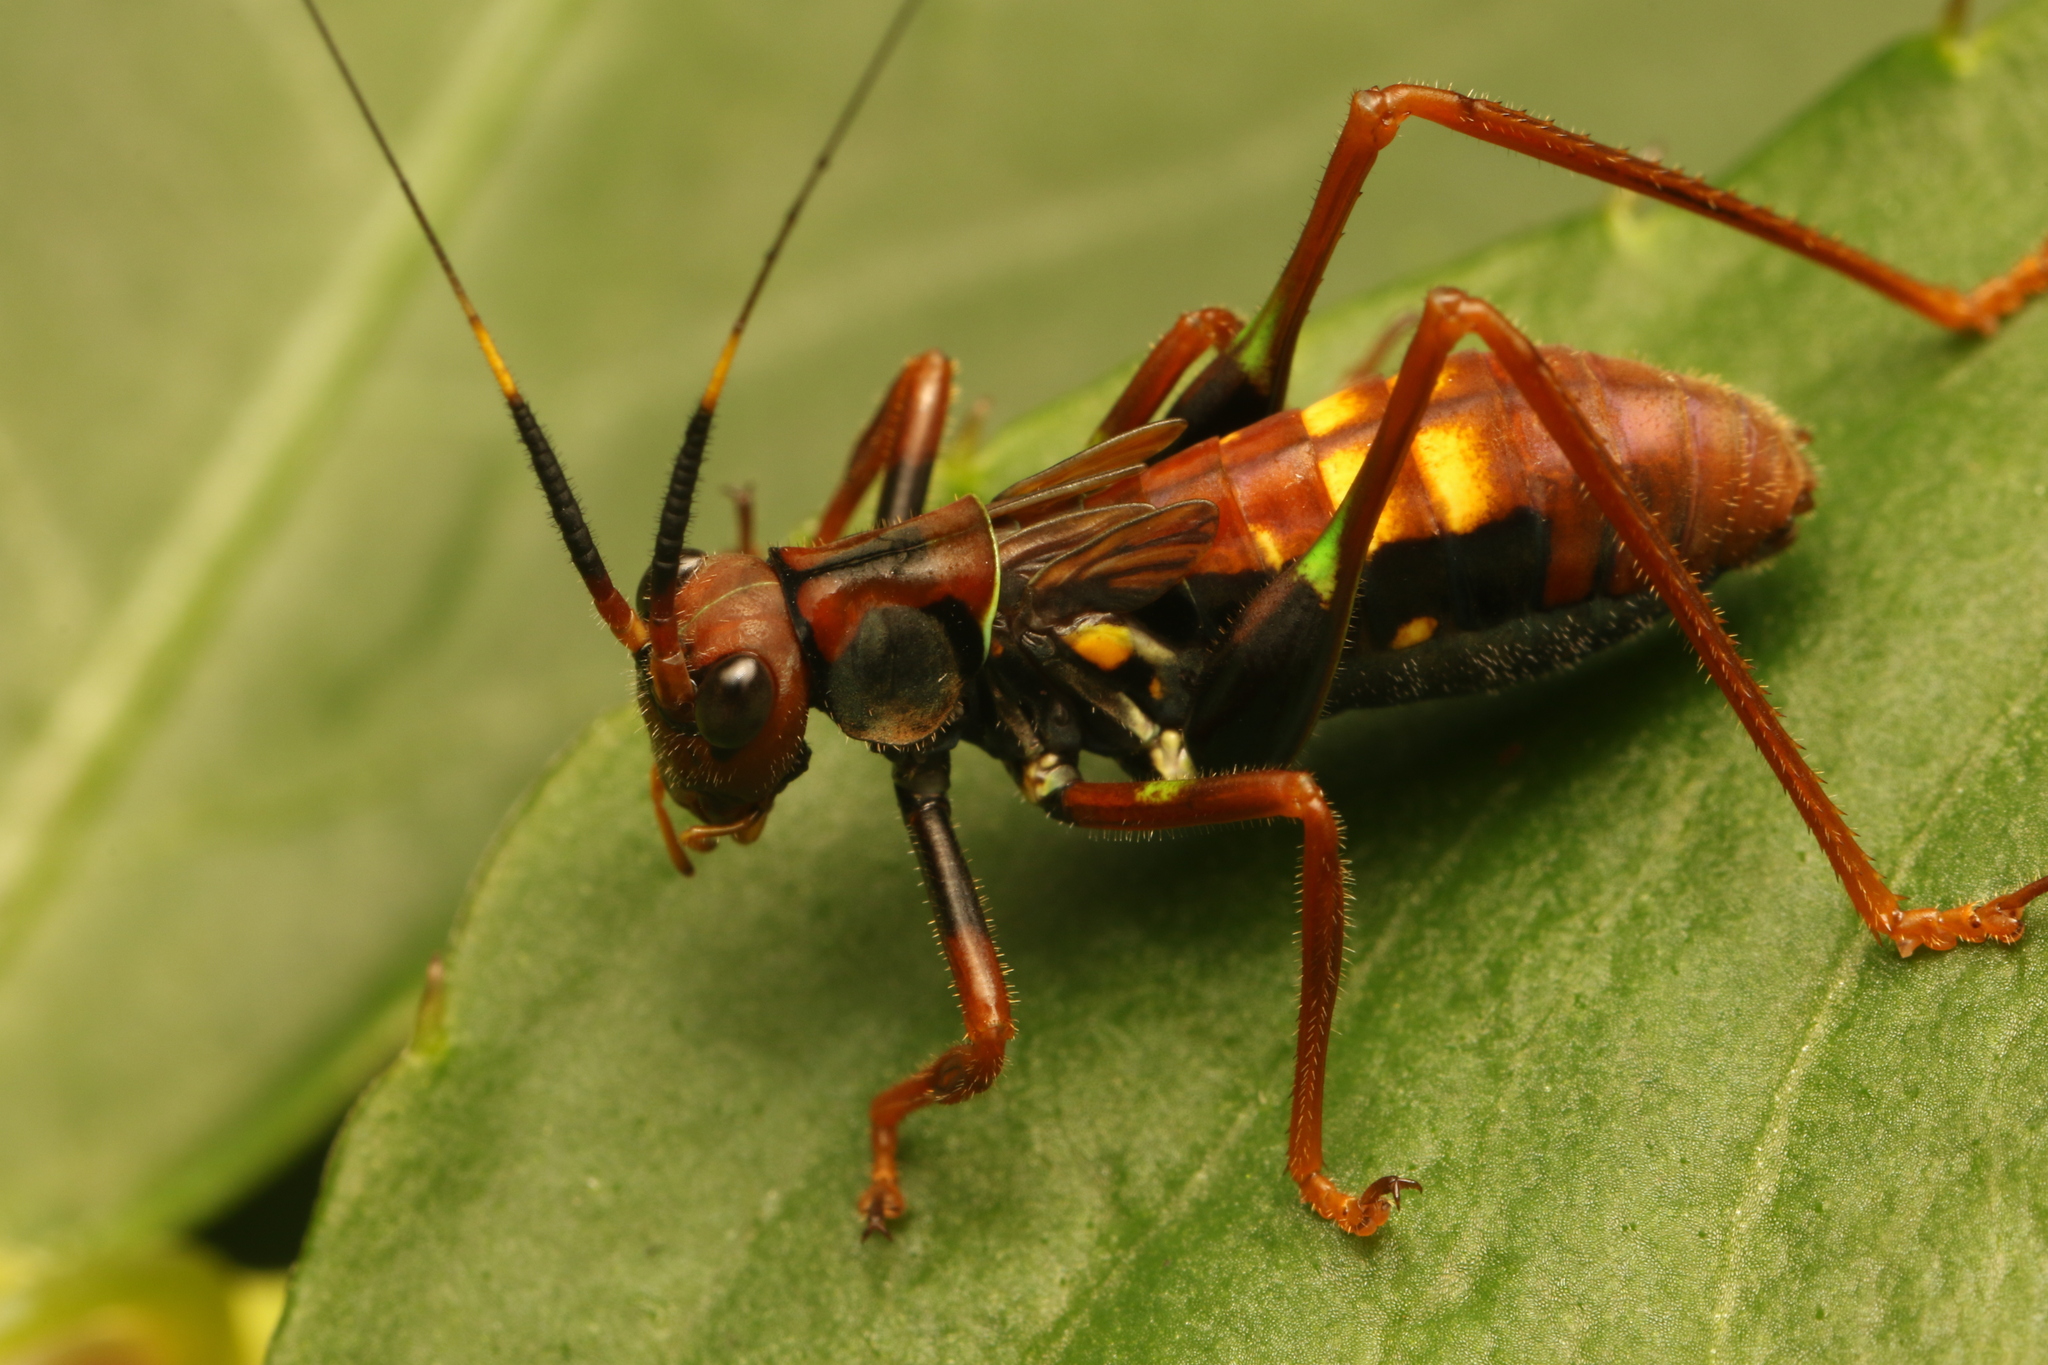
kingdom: Animalia
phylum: Arthropoda
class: Insecta
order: Orthoptera
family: Tettigoniidae
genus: Scaphura
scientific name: Scaphura nigra
